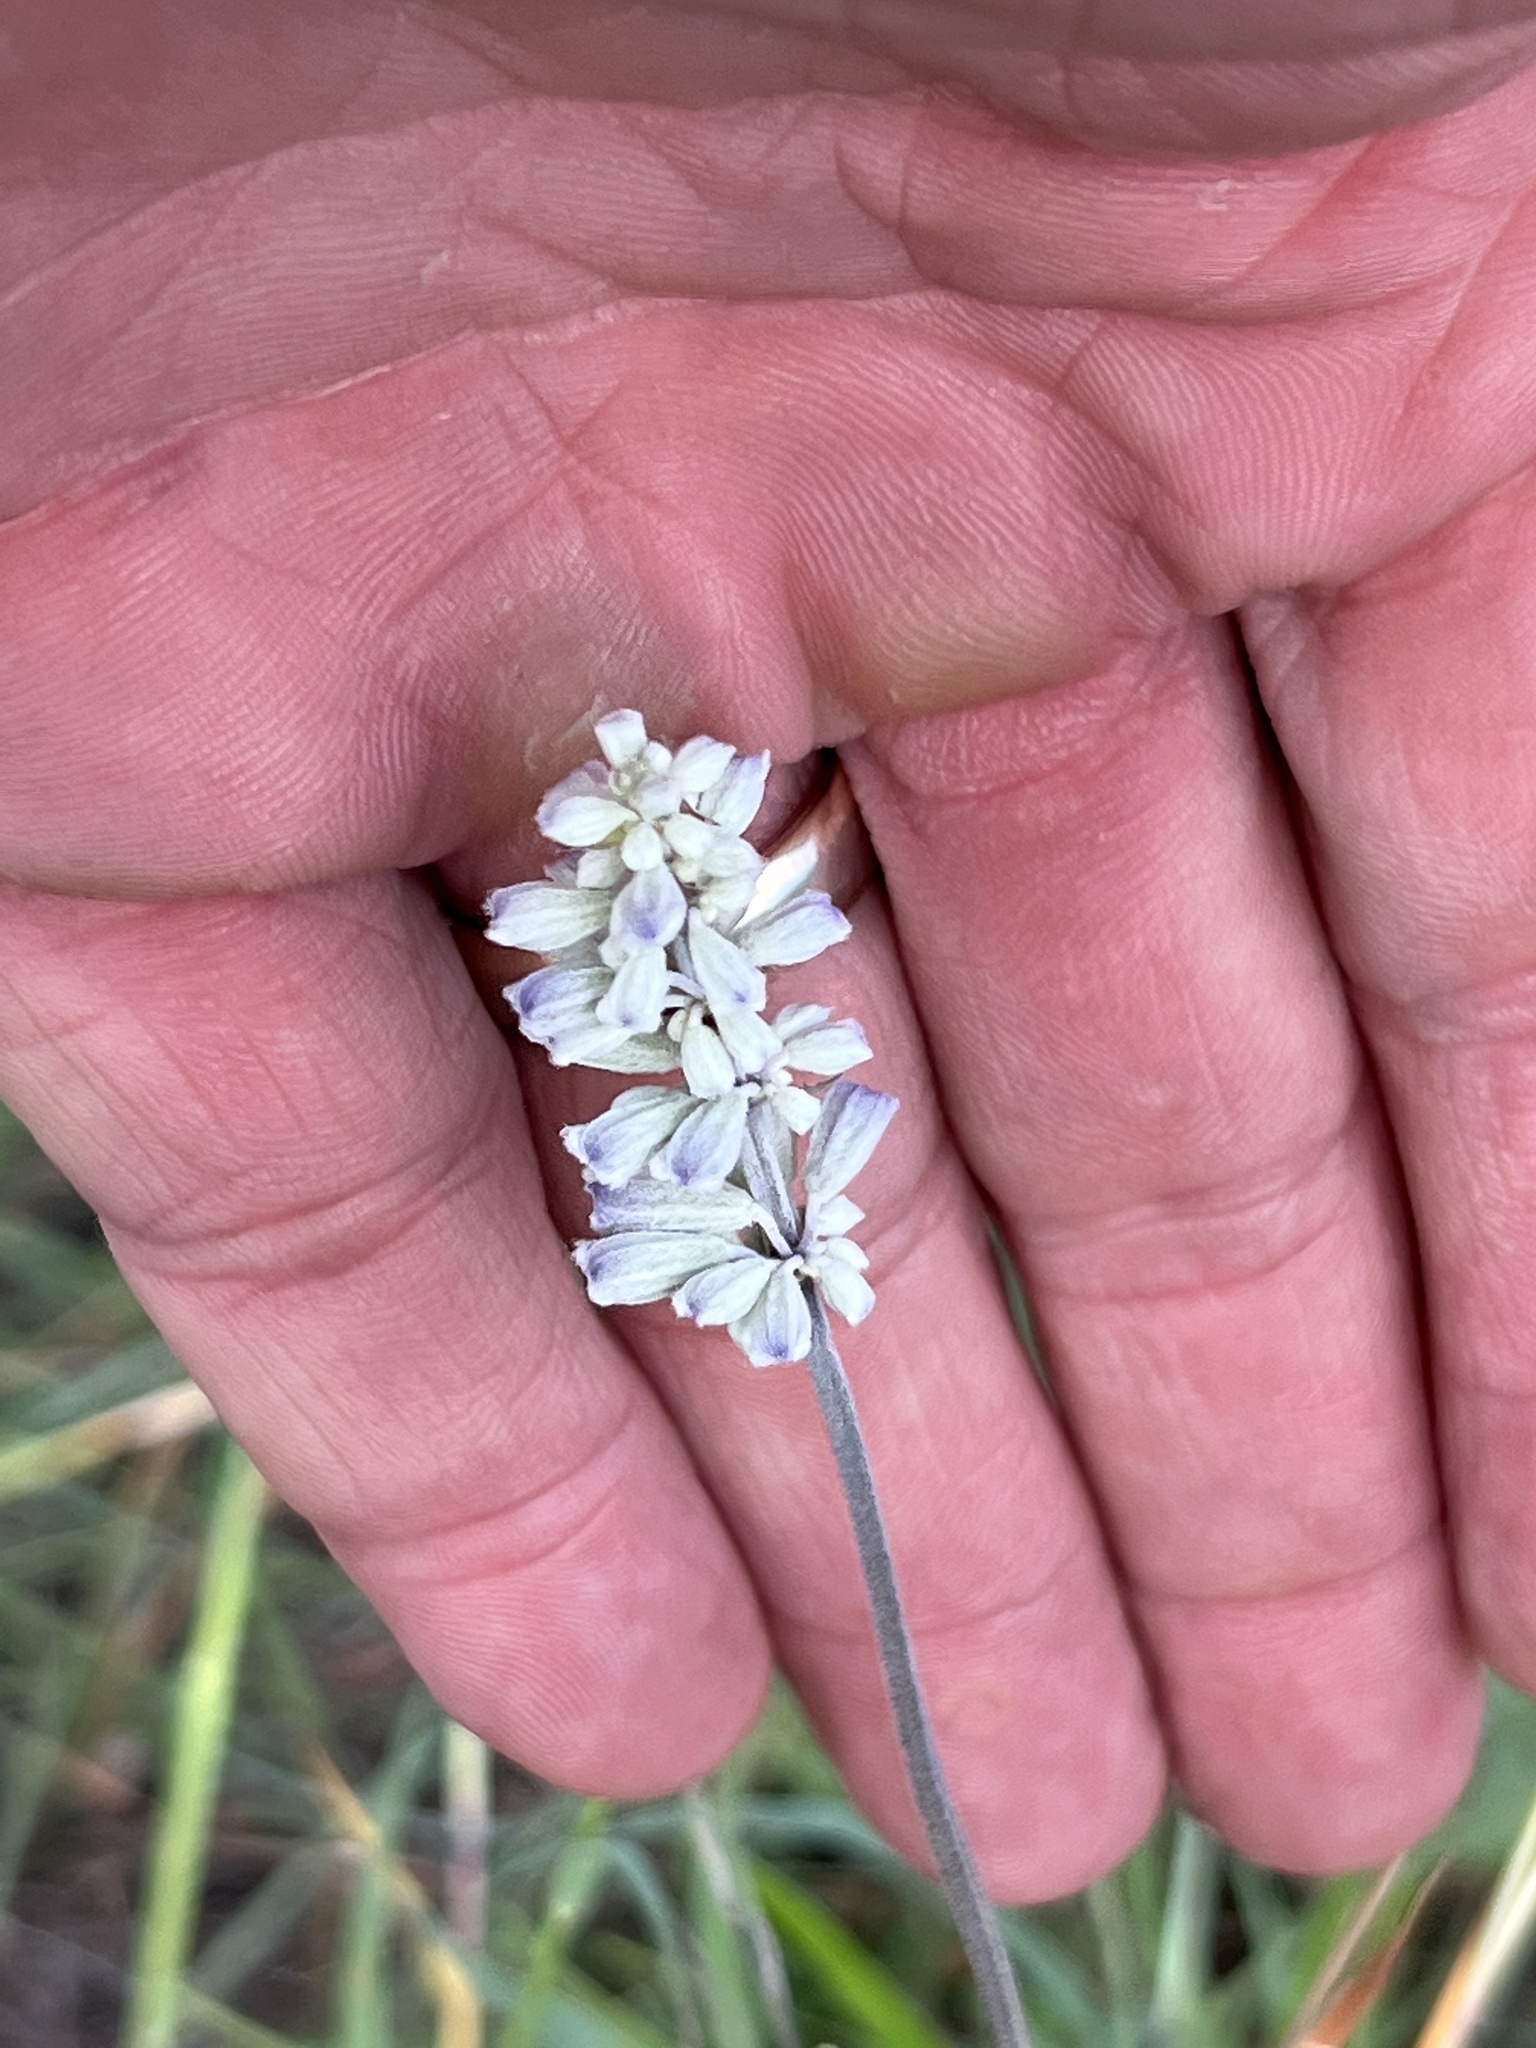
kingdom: Plantae
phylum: Tracheophyta
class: Magnoliopsida
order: Lamiales
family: Lamiaceae
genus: Salvia
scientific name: Salvia farinacea
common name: Mealy sage
